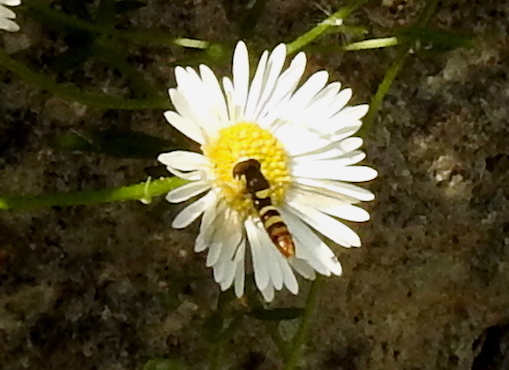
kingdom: Animalia
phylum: Arthropoda
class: Insecta
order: Diptera
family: Syrphidae
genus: Sphaerophoria
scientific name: Sphaerophoria sulphuripes
